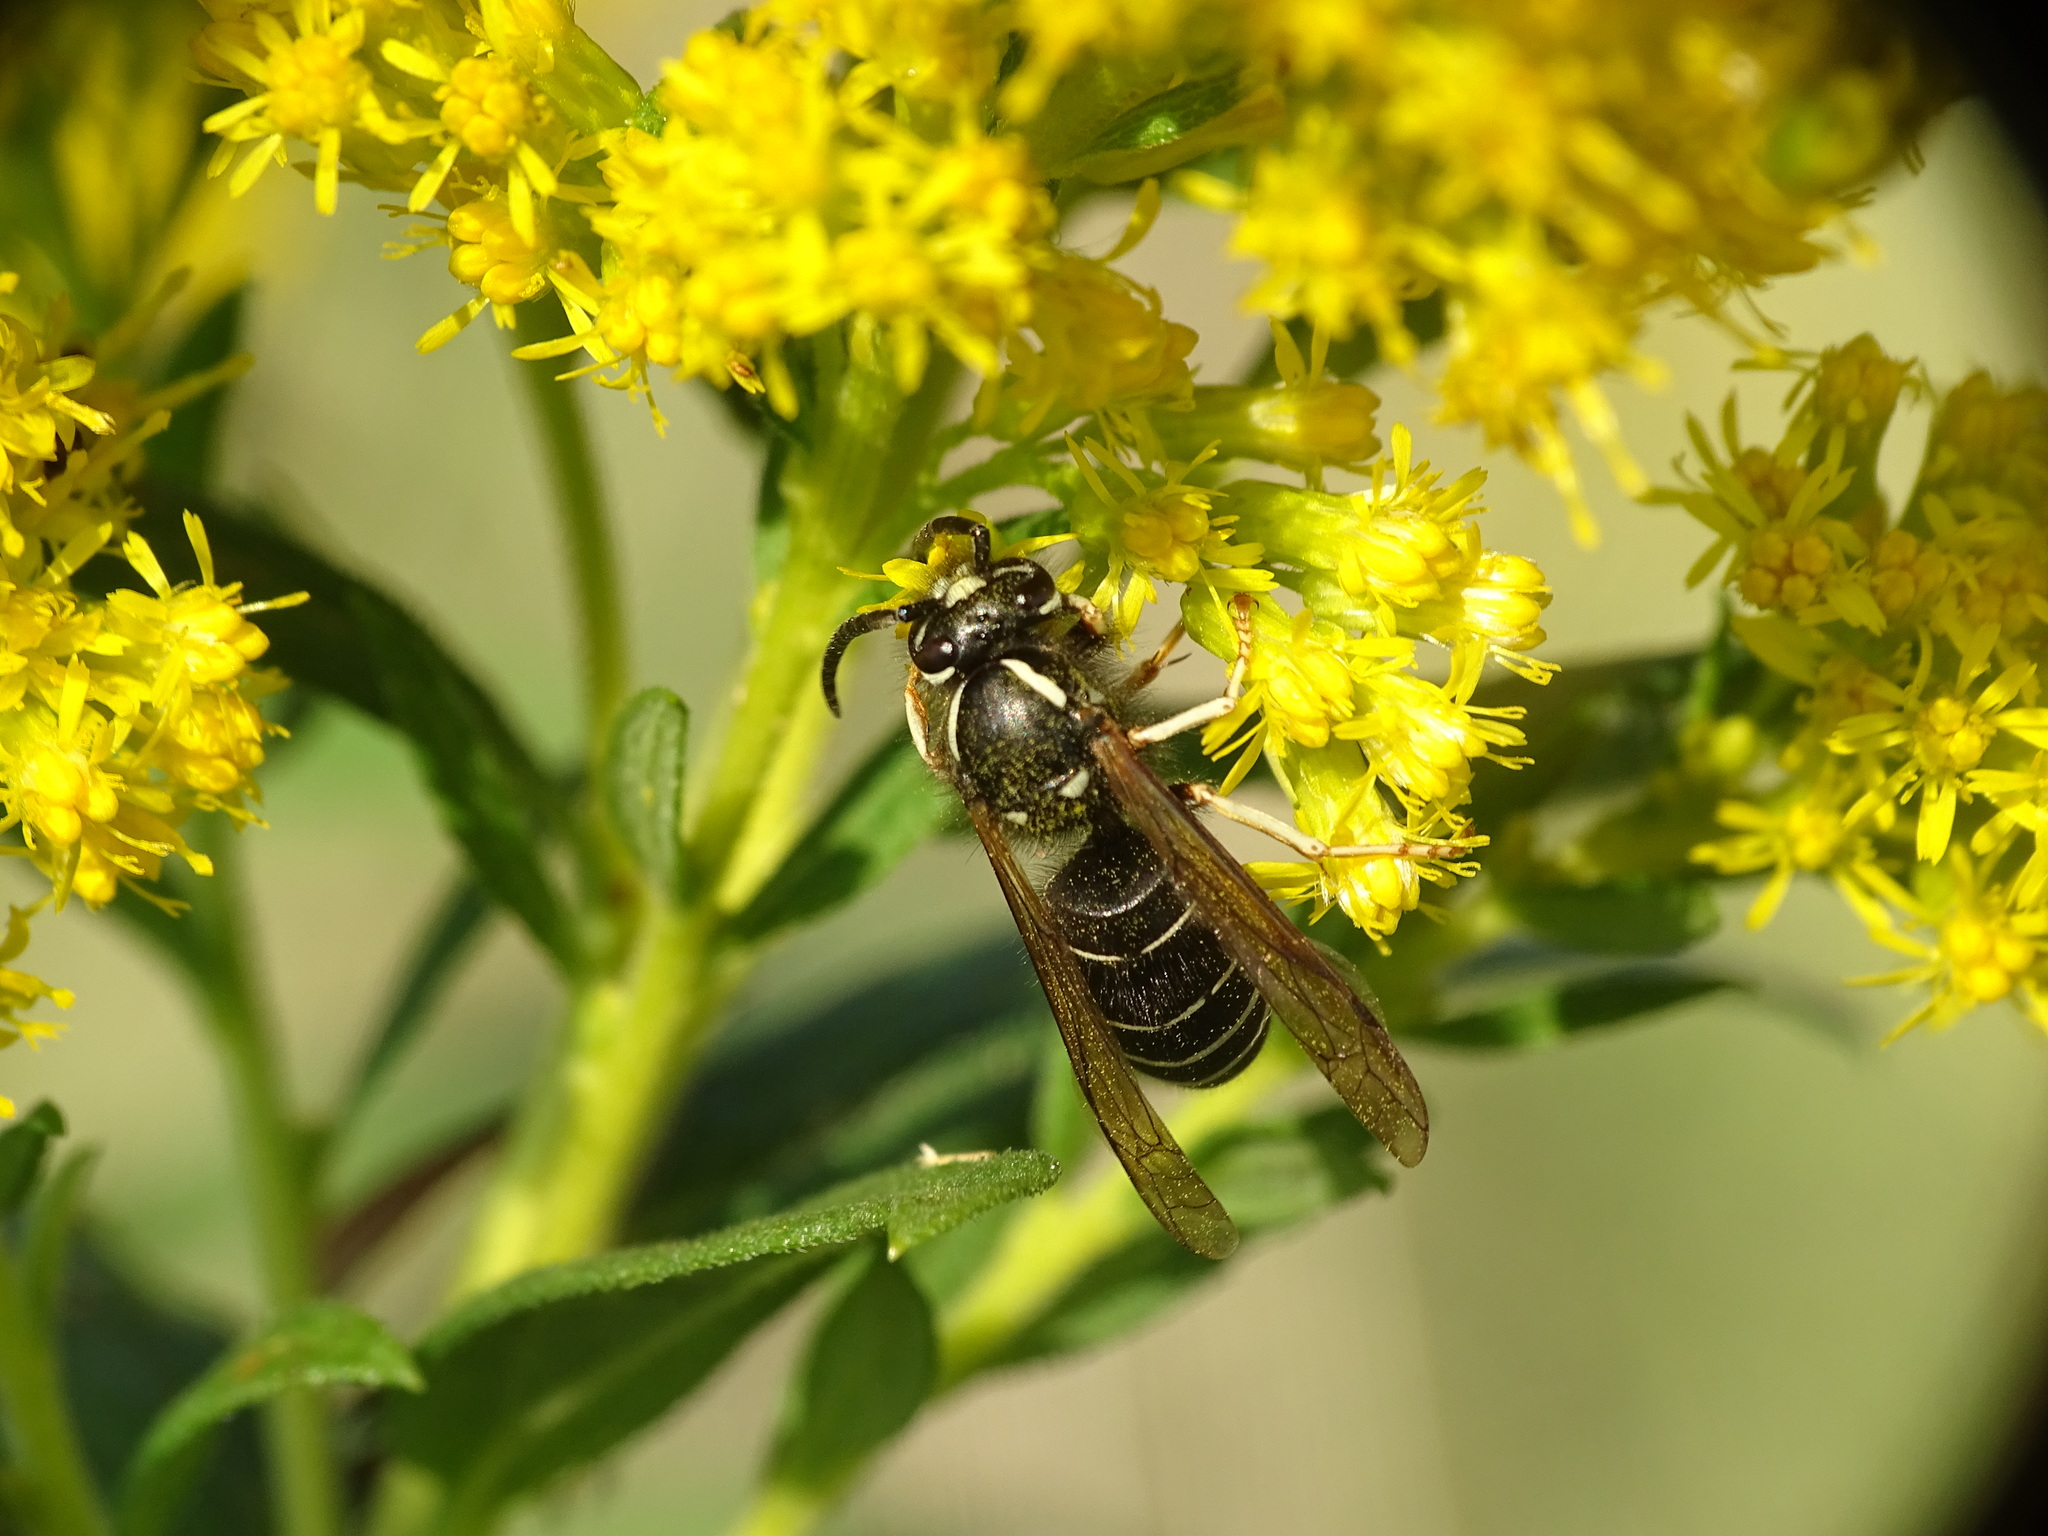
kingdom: Animalia
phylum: Arthropoda
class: Insecta
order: Hymenoptera
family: Vespidae
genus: Vespula
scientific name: Vespula consobrina
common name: Blackjacket
